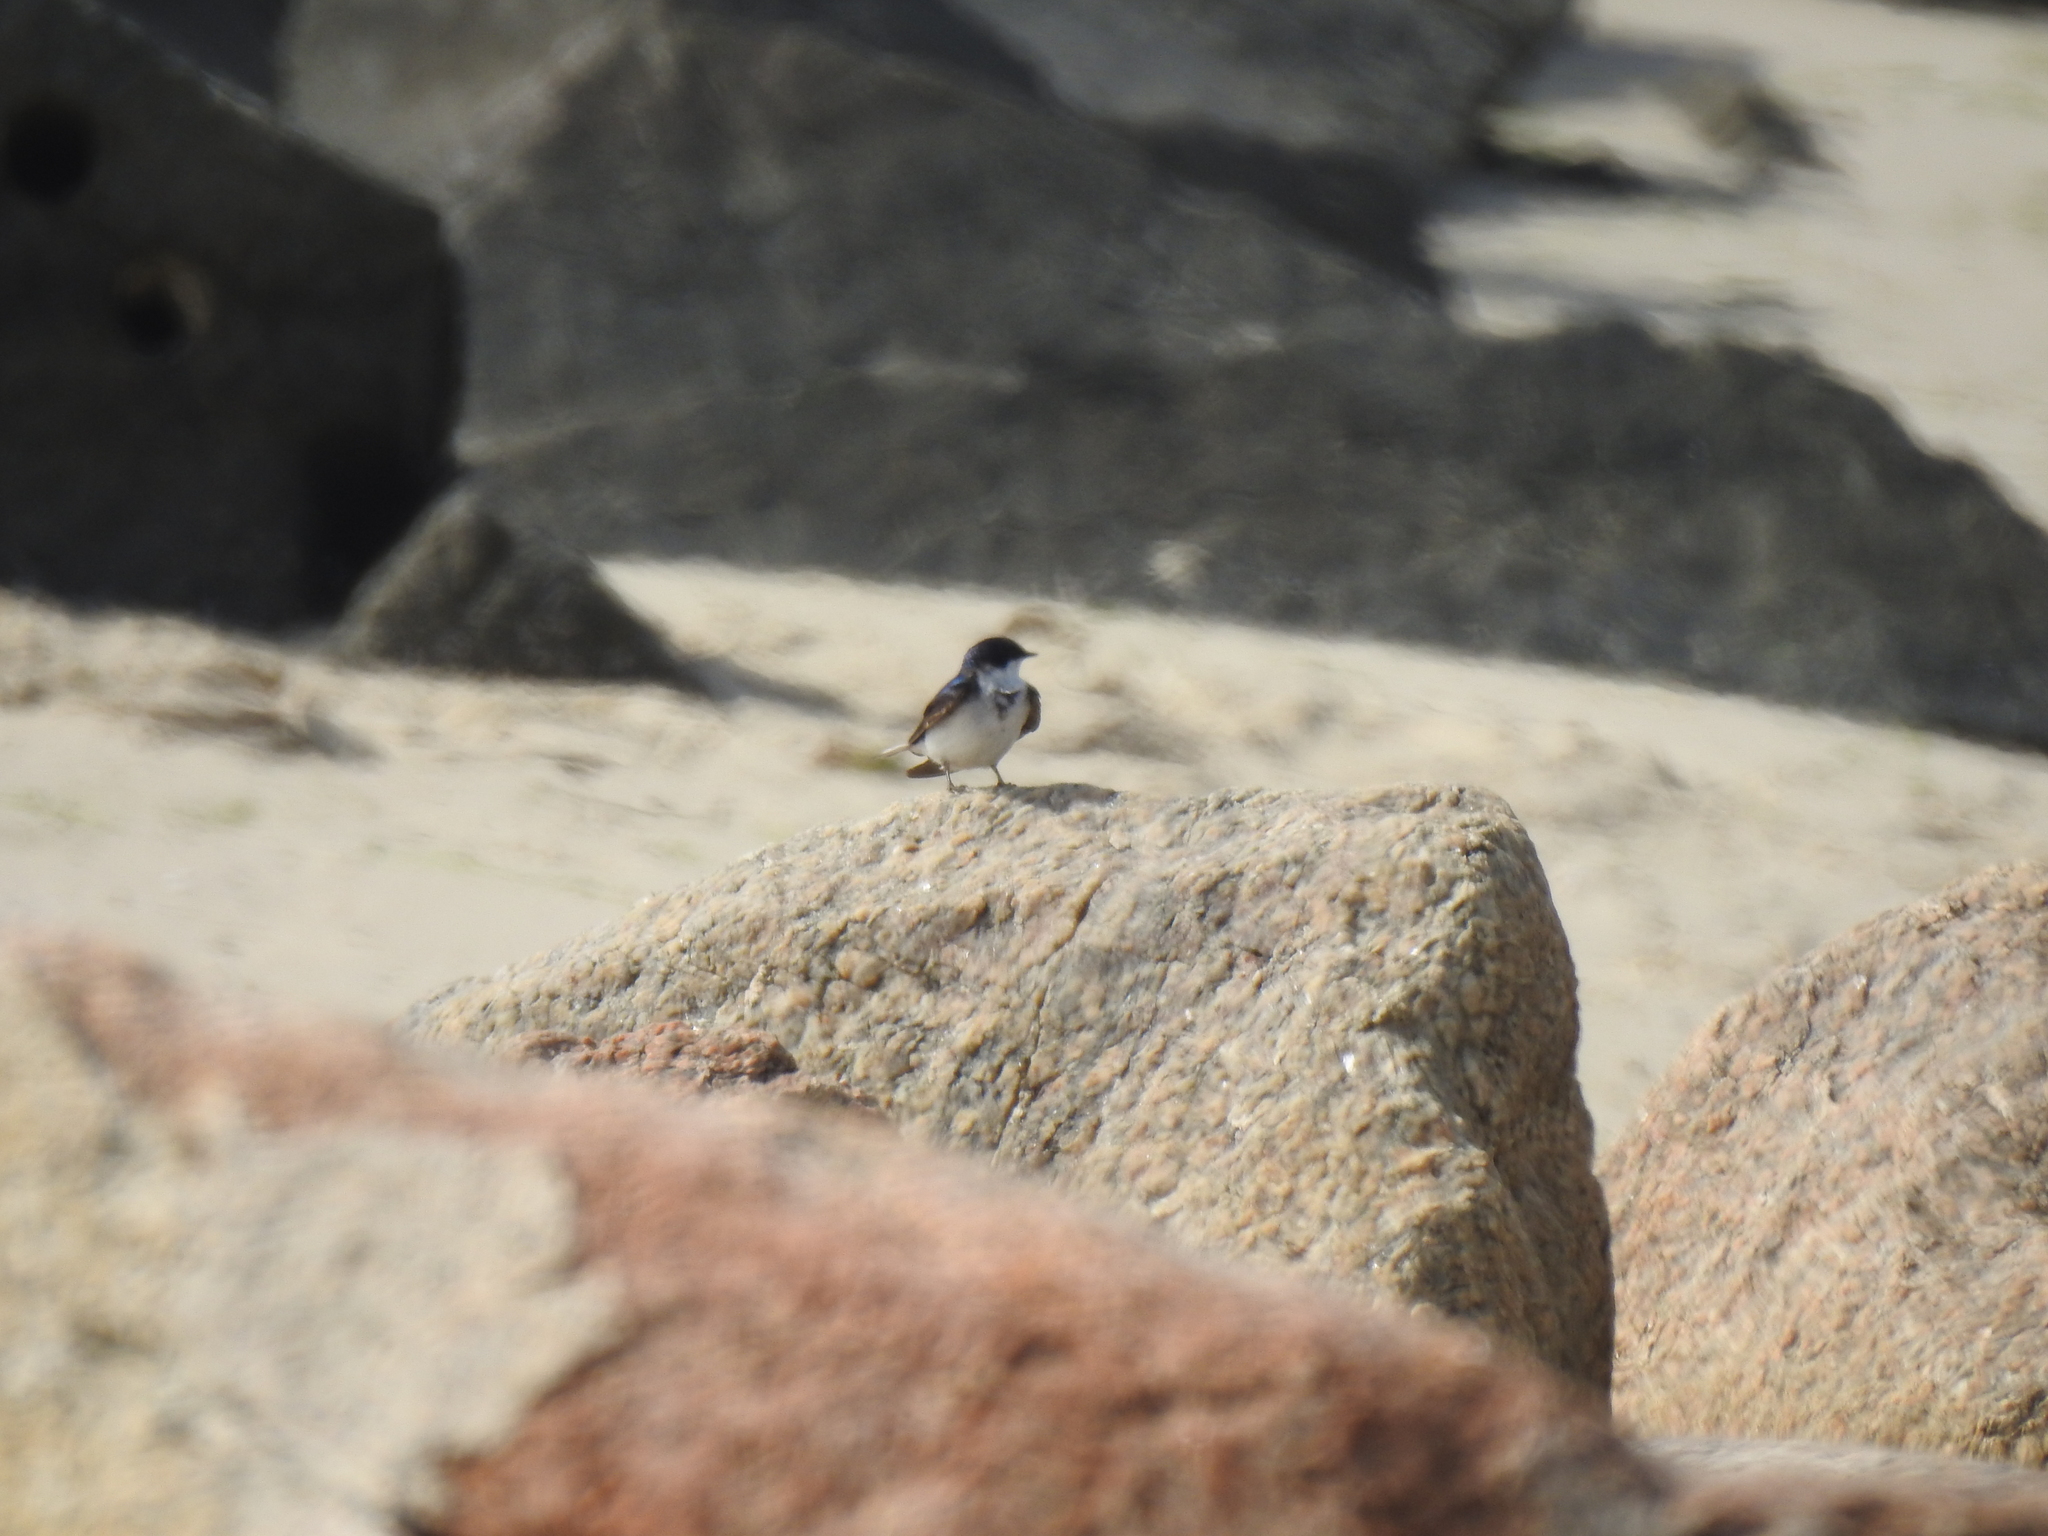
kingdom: Animalia
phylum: Chordata
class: Aves
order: Passeriformes
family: Hirundinidae
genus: Tachycineta
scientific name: Tachycineta bicolor
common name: Tree swallow
